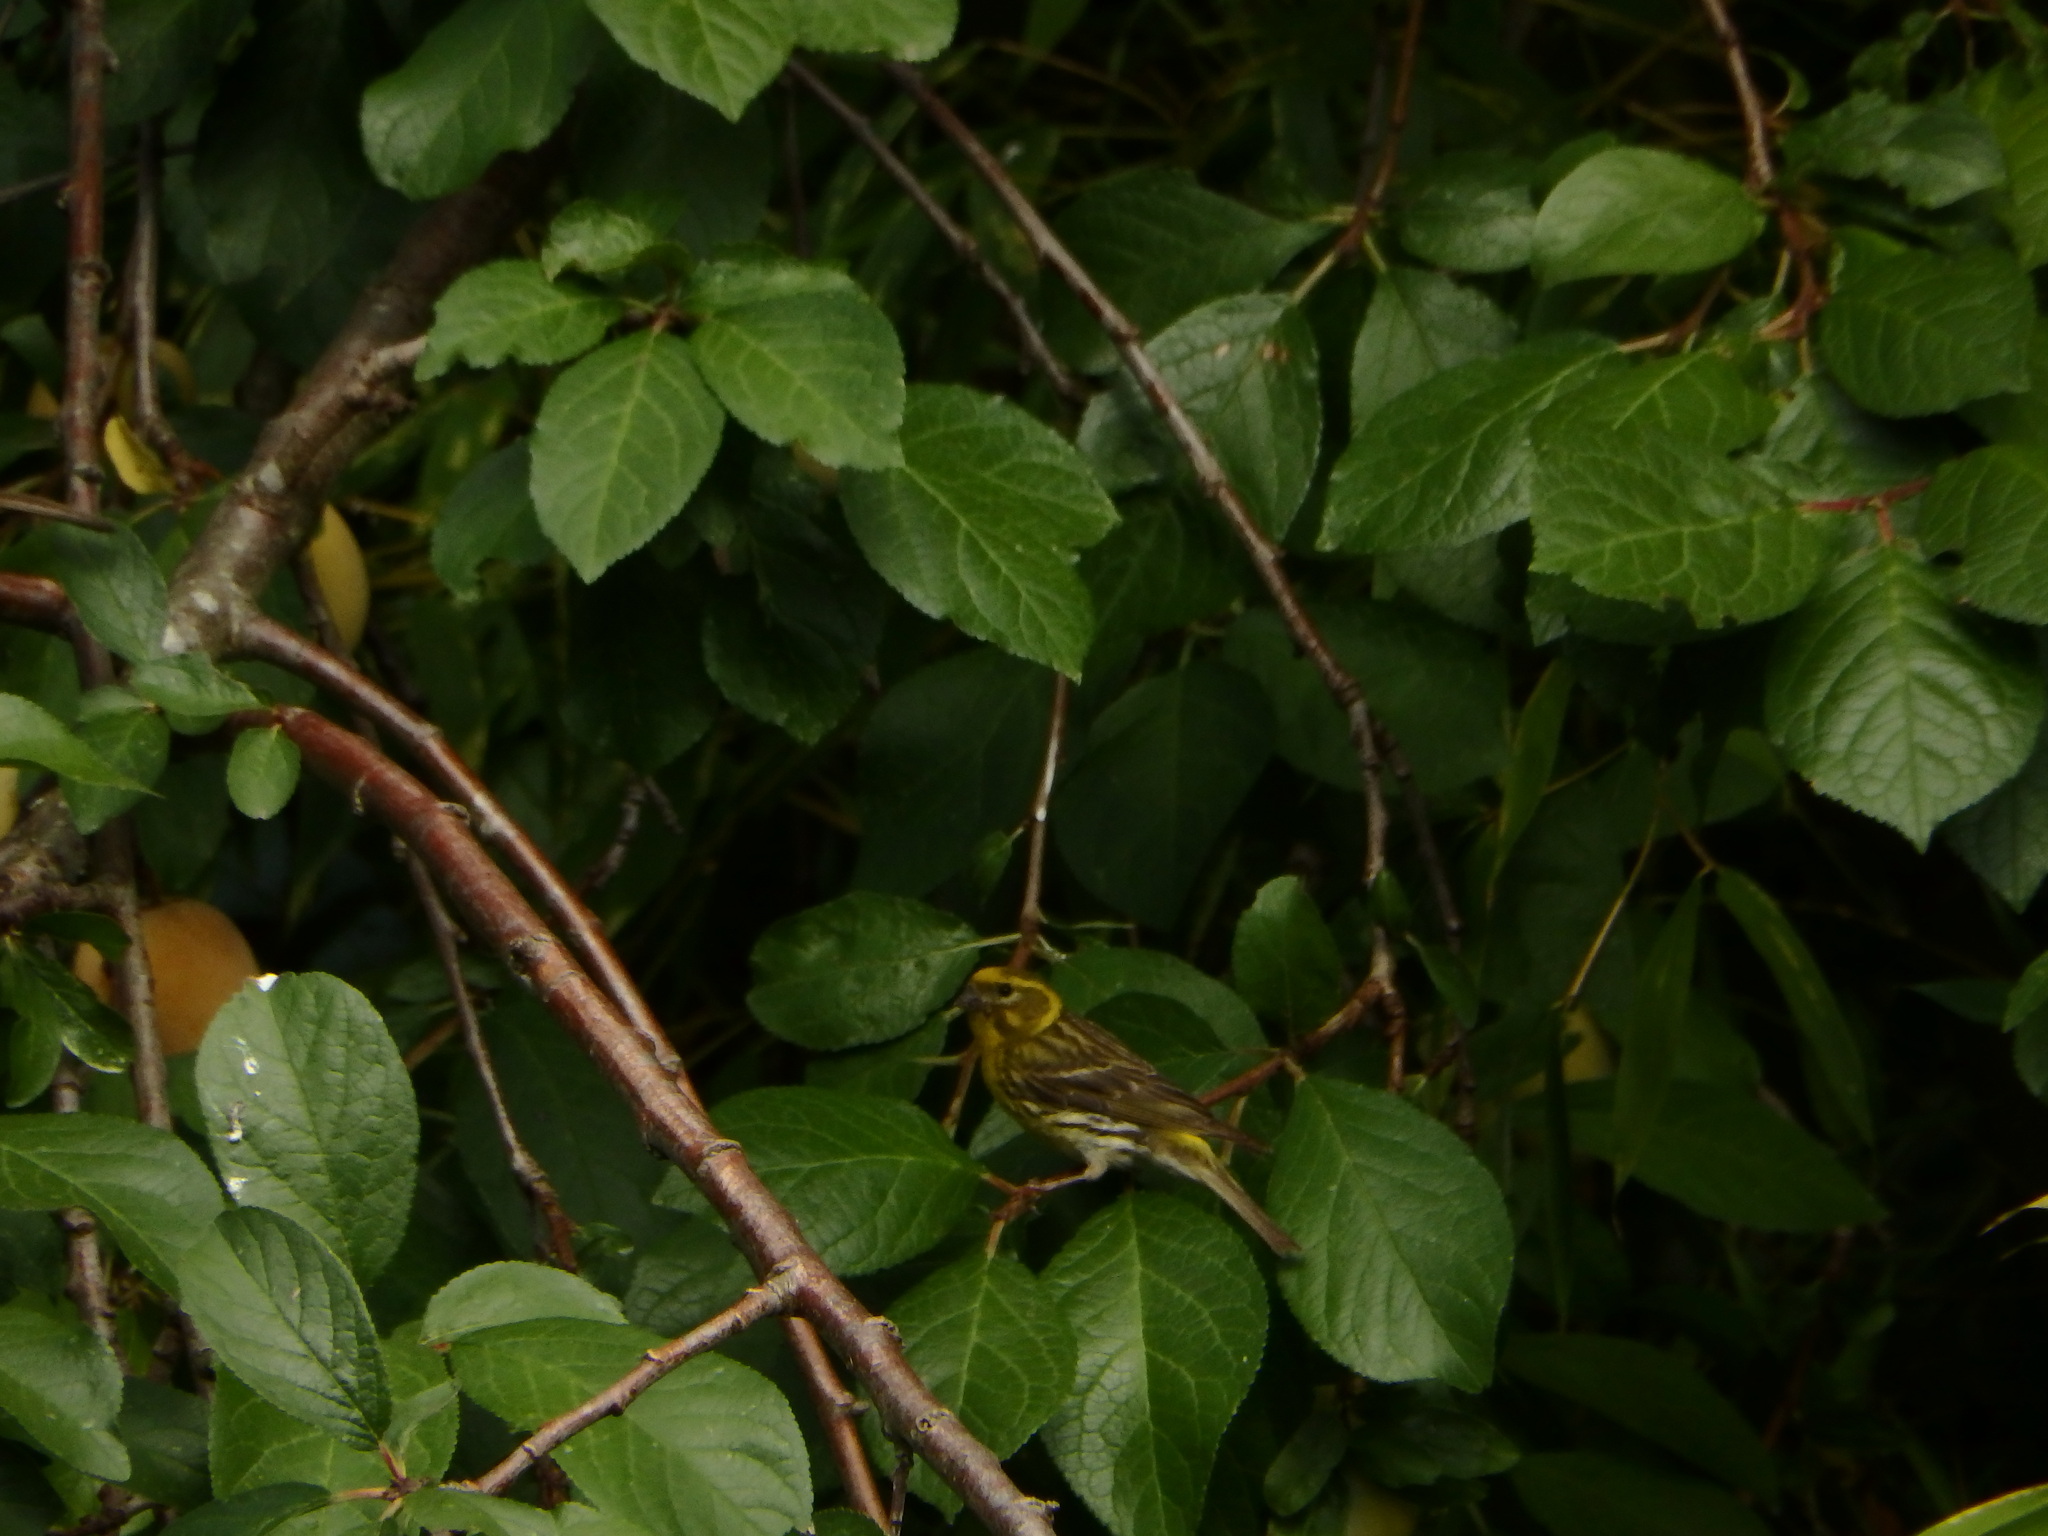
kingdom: Animalia
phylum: Chordata
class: Aves
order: Passeriformes
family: Fringillidae
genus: Serinus
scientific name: Serinus serinus
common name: European serin
